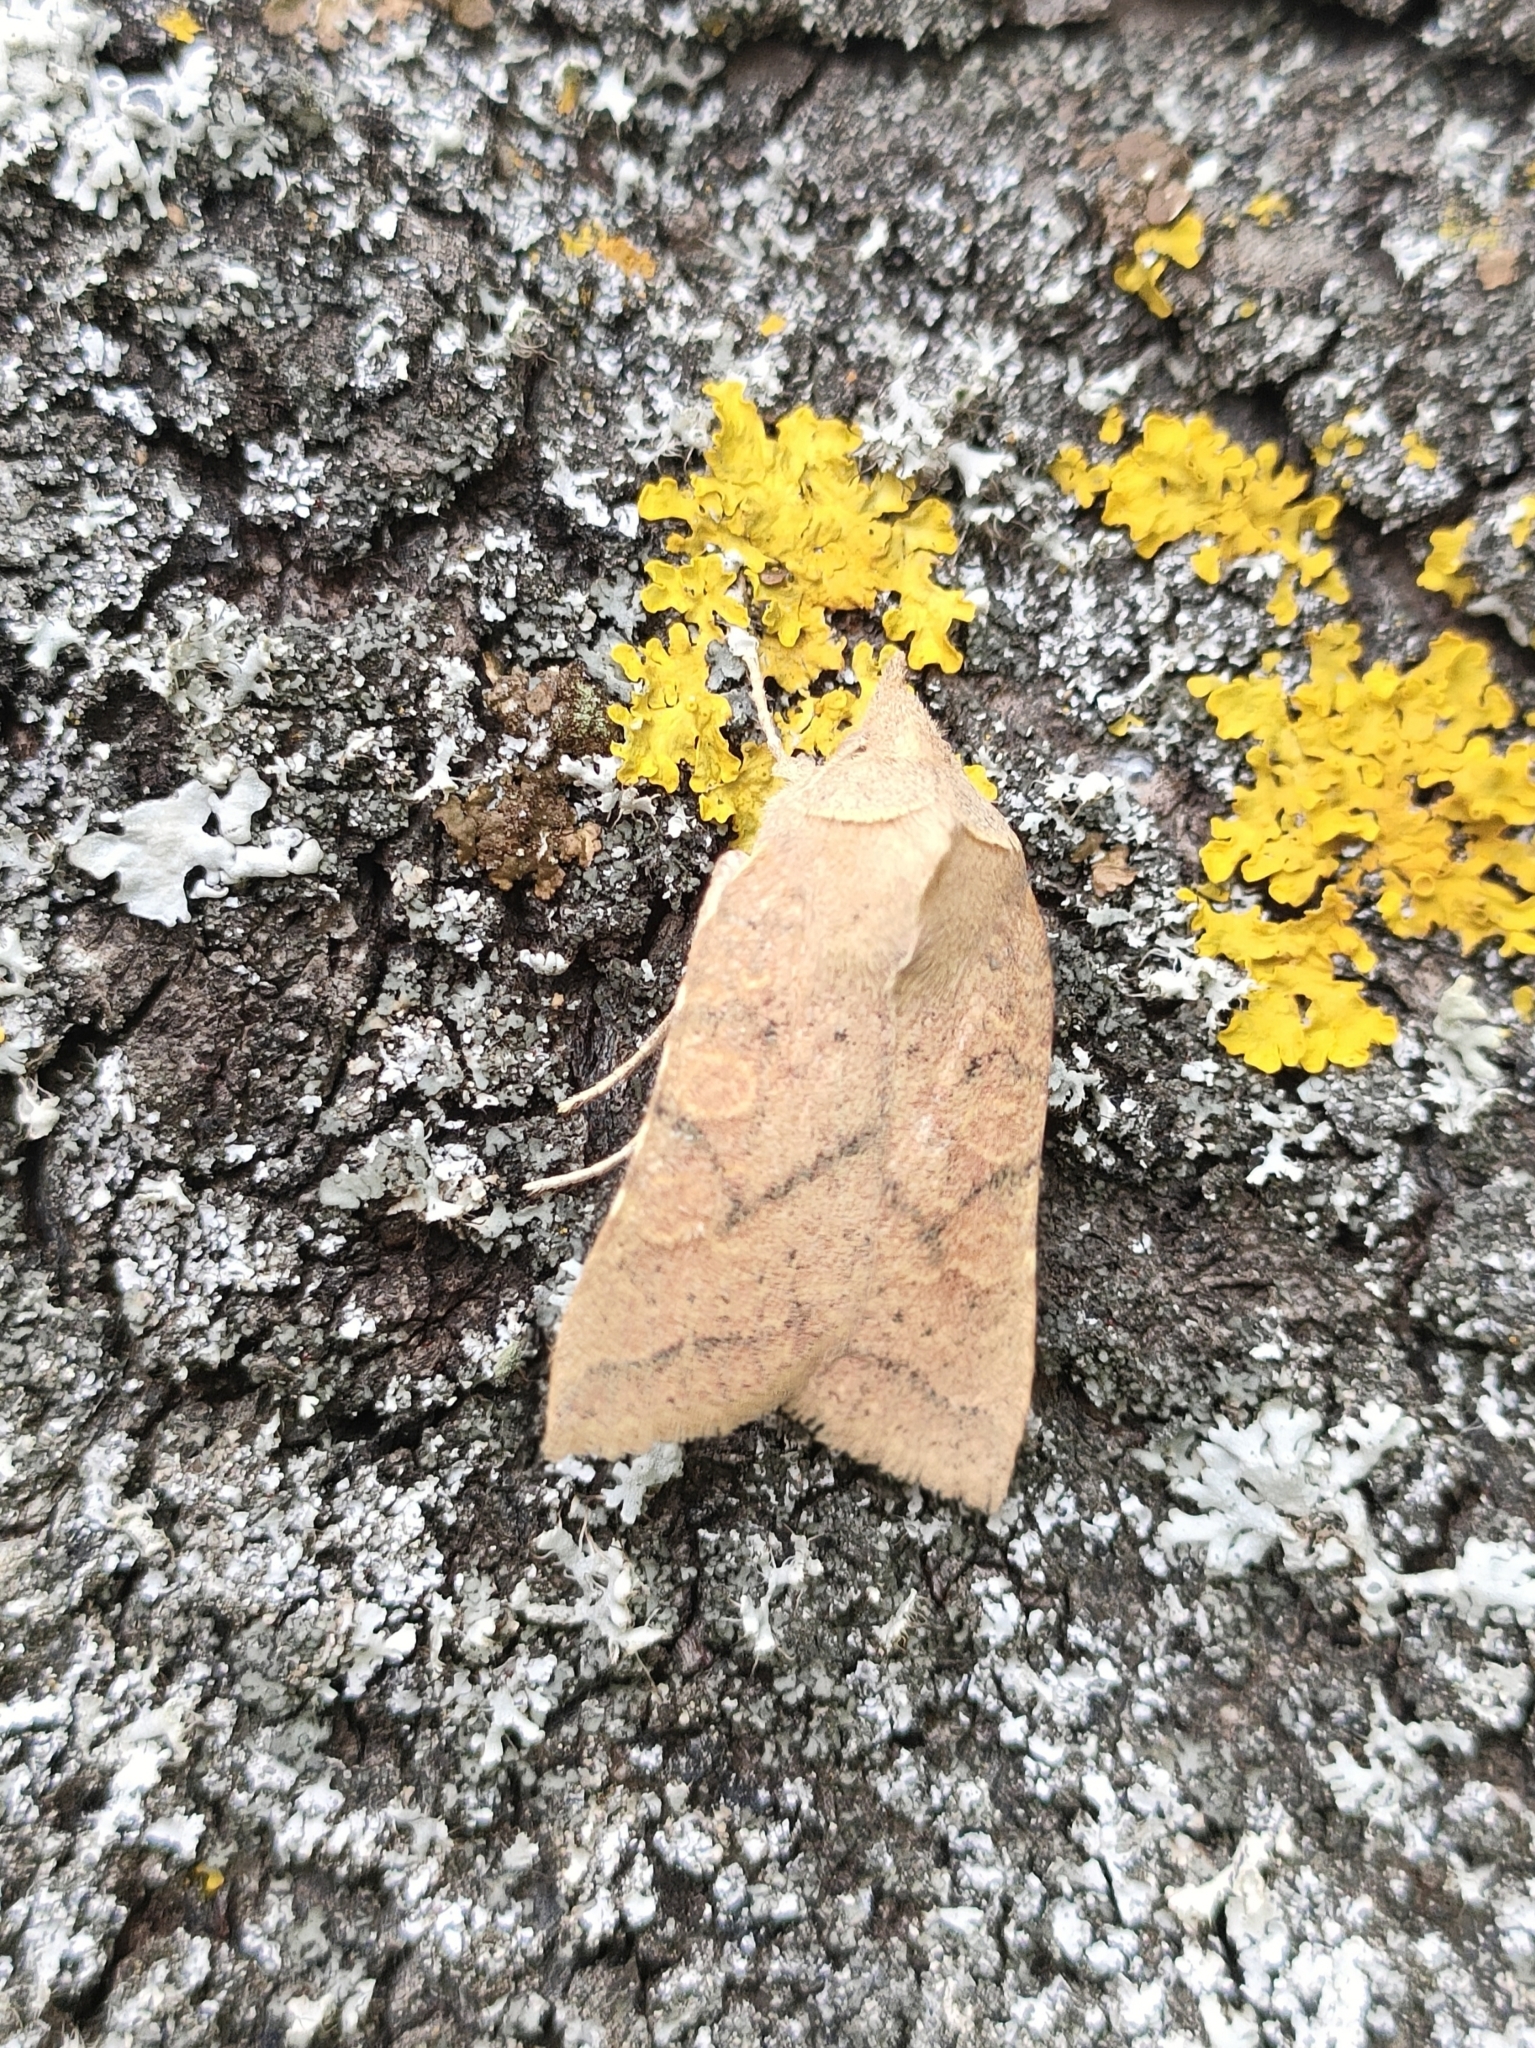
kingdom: Animalia
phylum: Arthropoda
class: Insecta
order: Lepidoptera
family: Noctuidae
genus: Jodia
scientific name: Jodia croceago
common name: Orange upperwing
